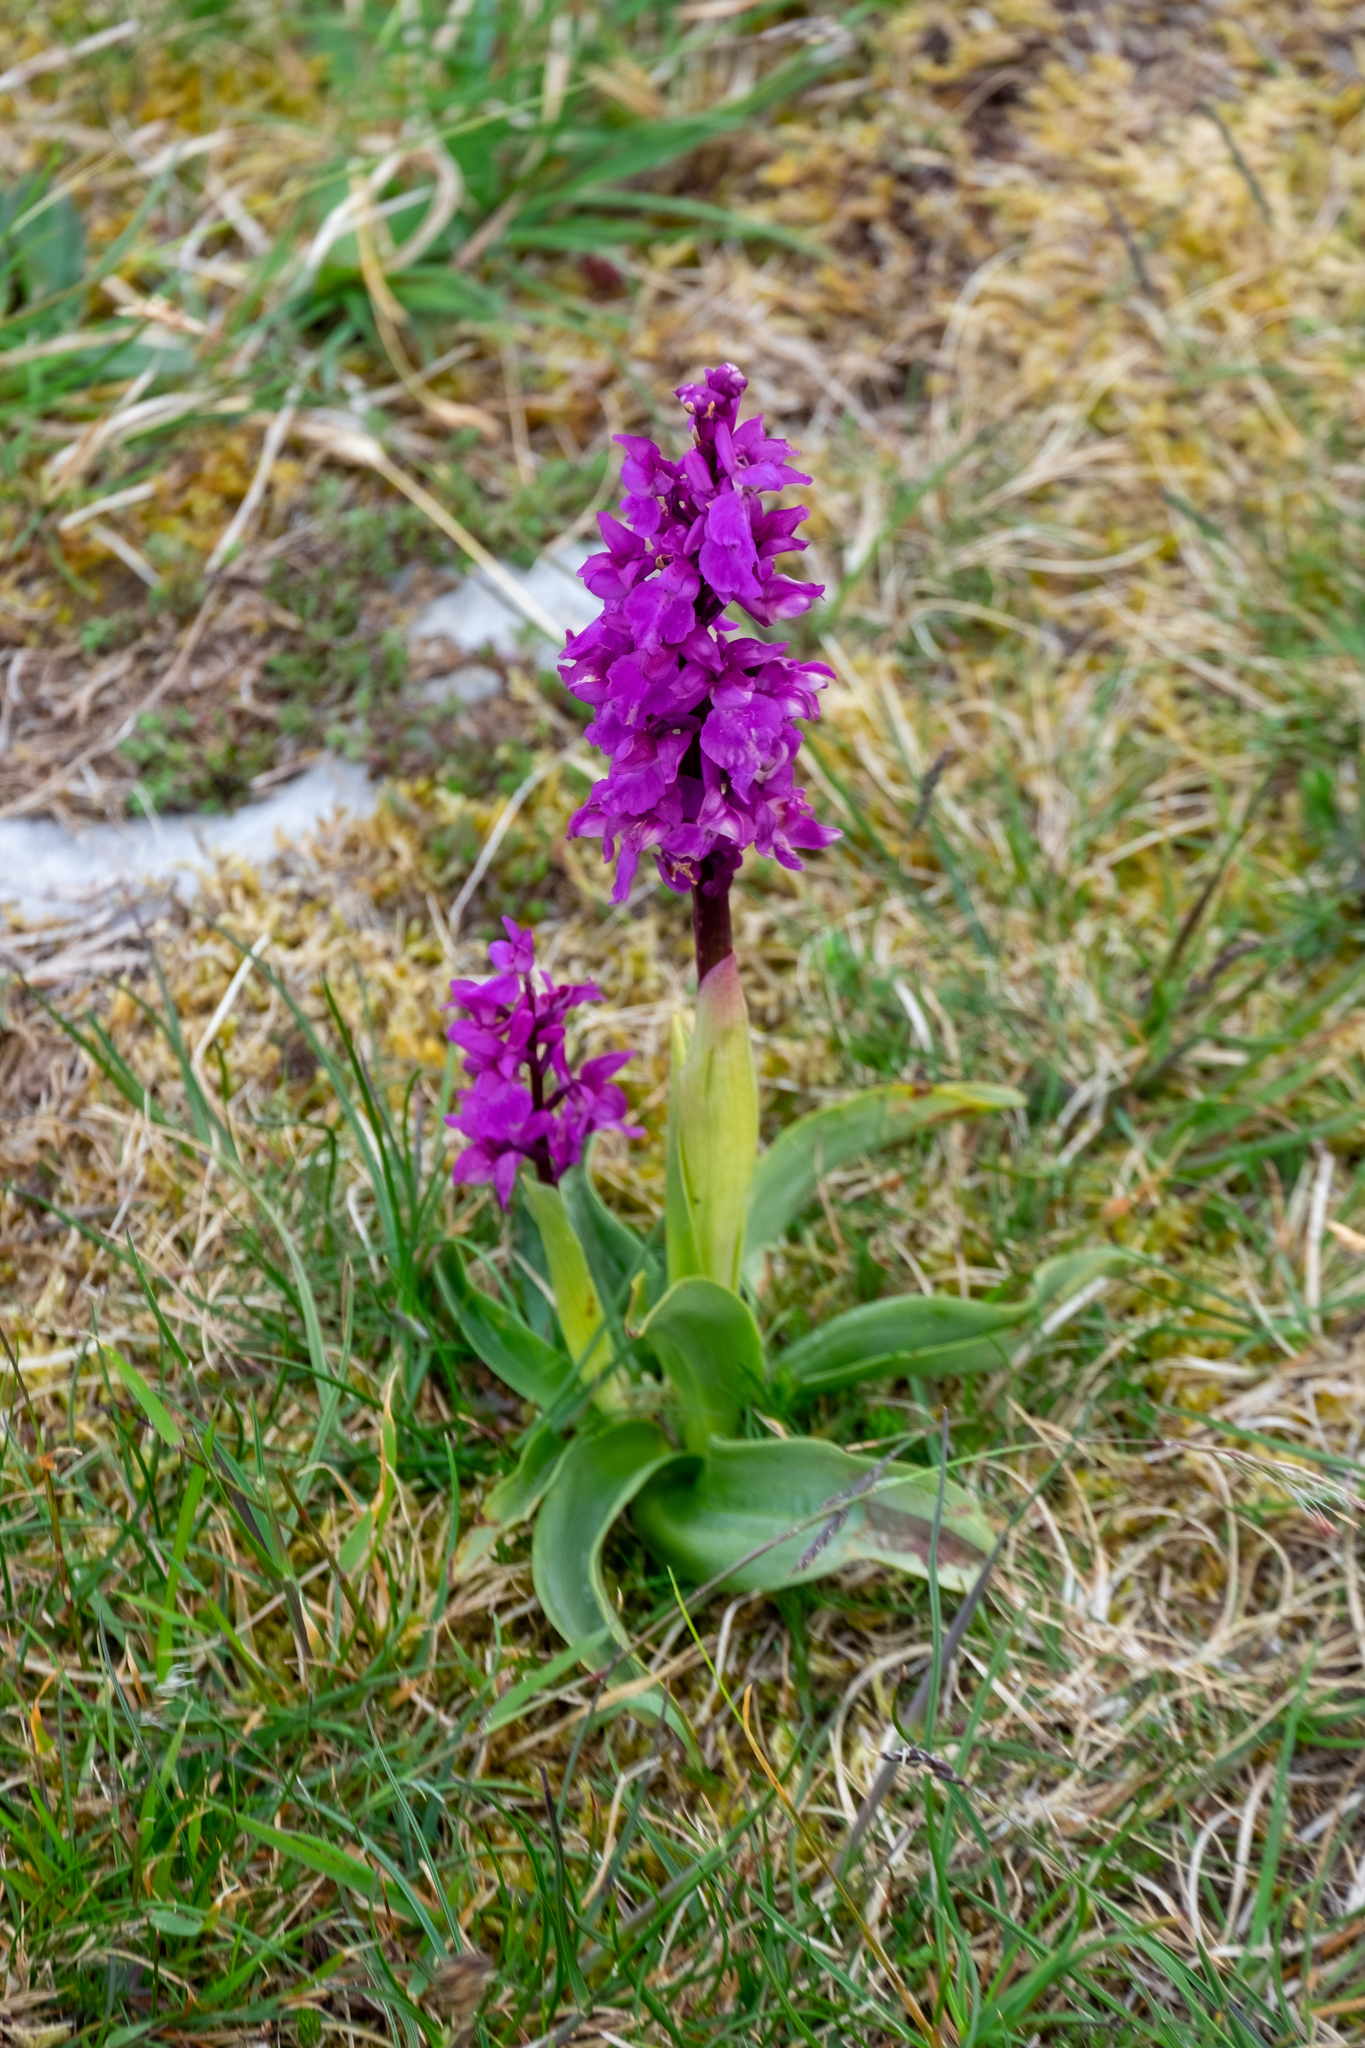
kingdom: Plantae
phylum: Tracheophyta
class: Liliopsida
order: Asparagales
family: Orchidaceae
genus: Orchis
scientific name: Orchis mascula
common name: Early-purple orchid
